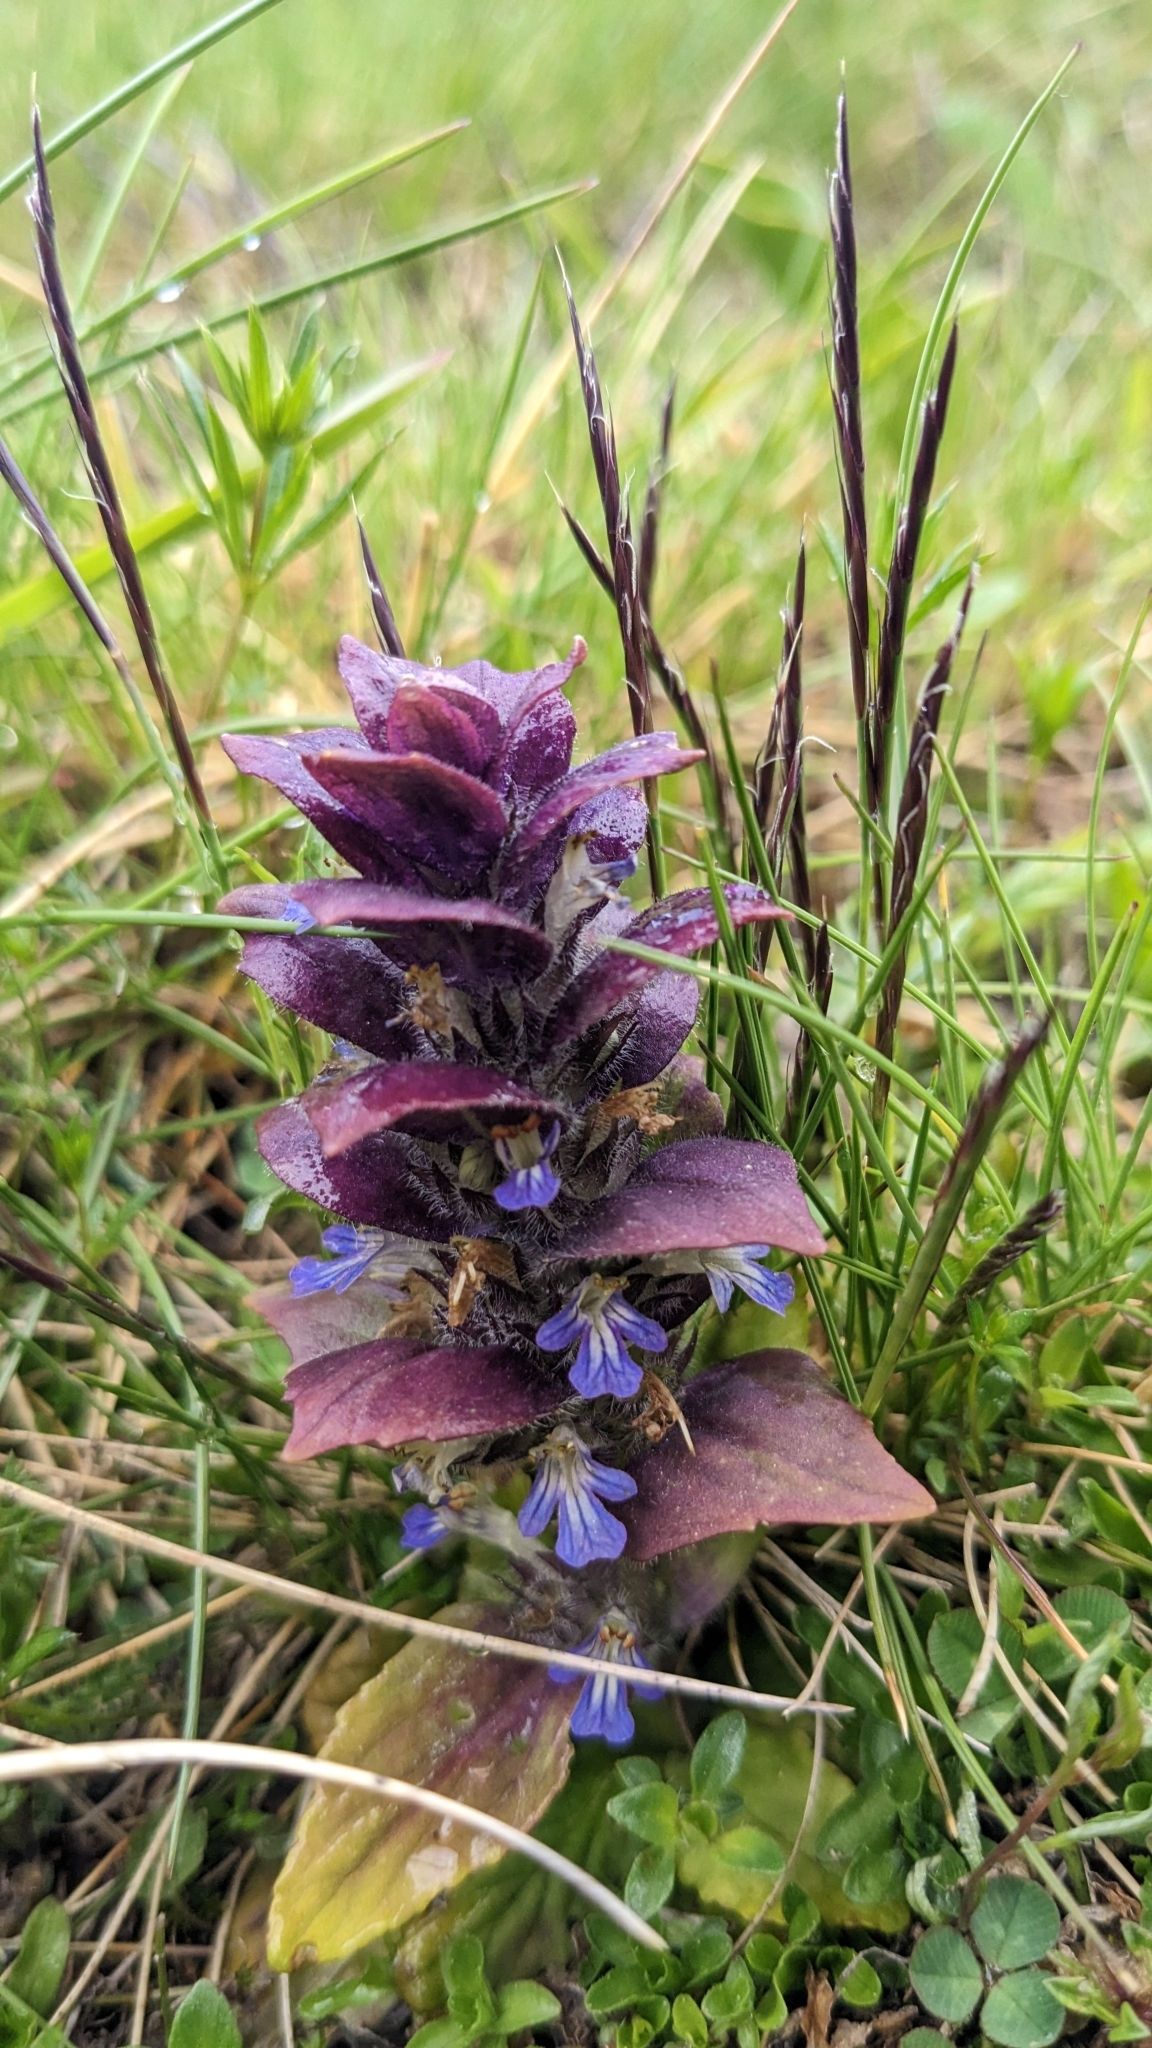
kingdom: Plantae
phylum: Tracheophyta
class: Magnoliopsida
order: Lamiales
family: Lamiaceae
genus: Ajuga
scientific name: Ajuga pyramidalis
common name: Pyramid bugle
